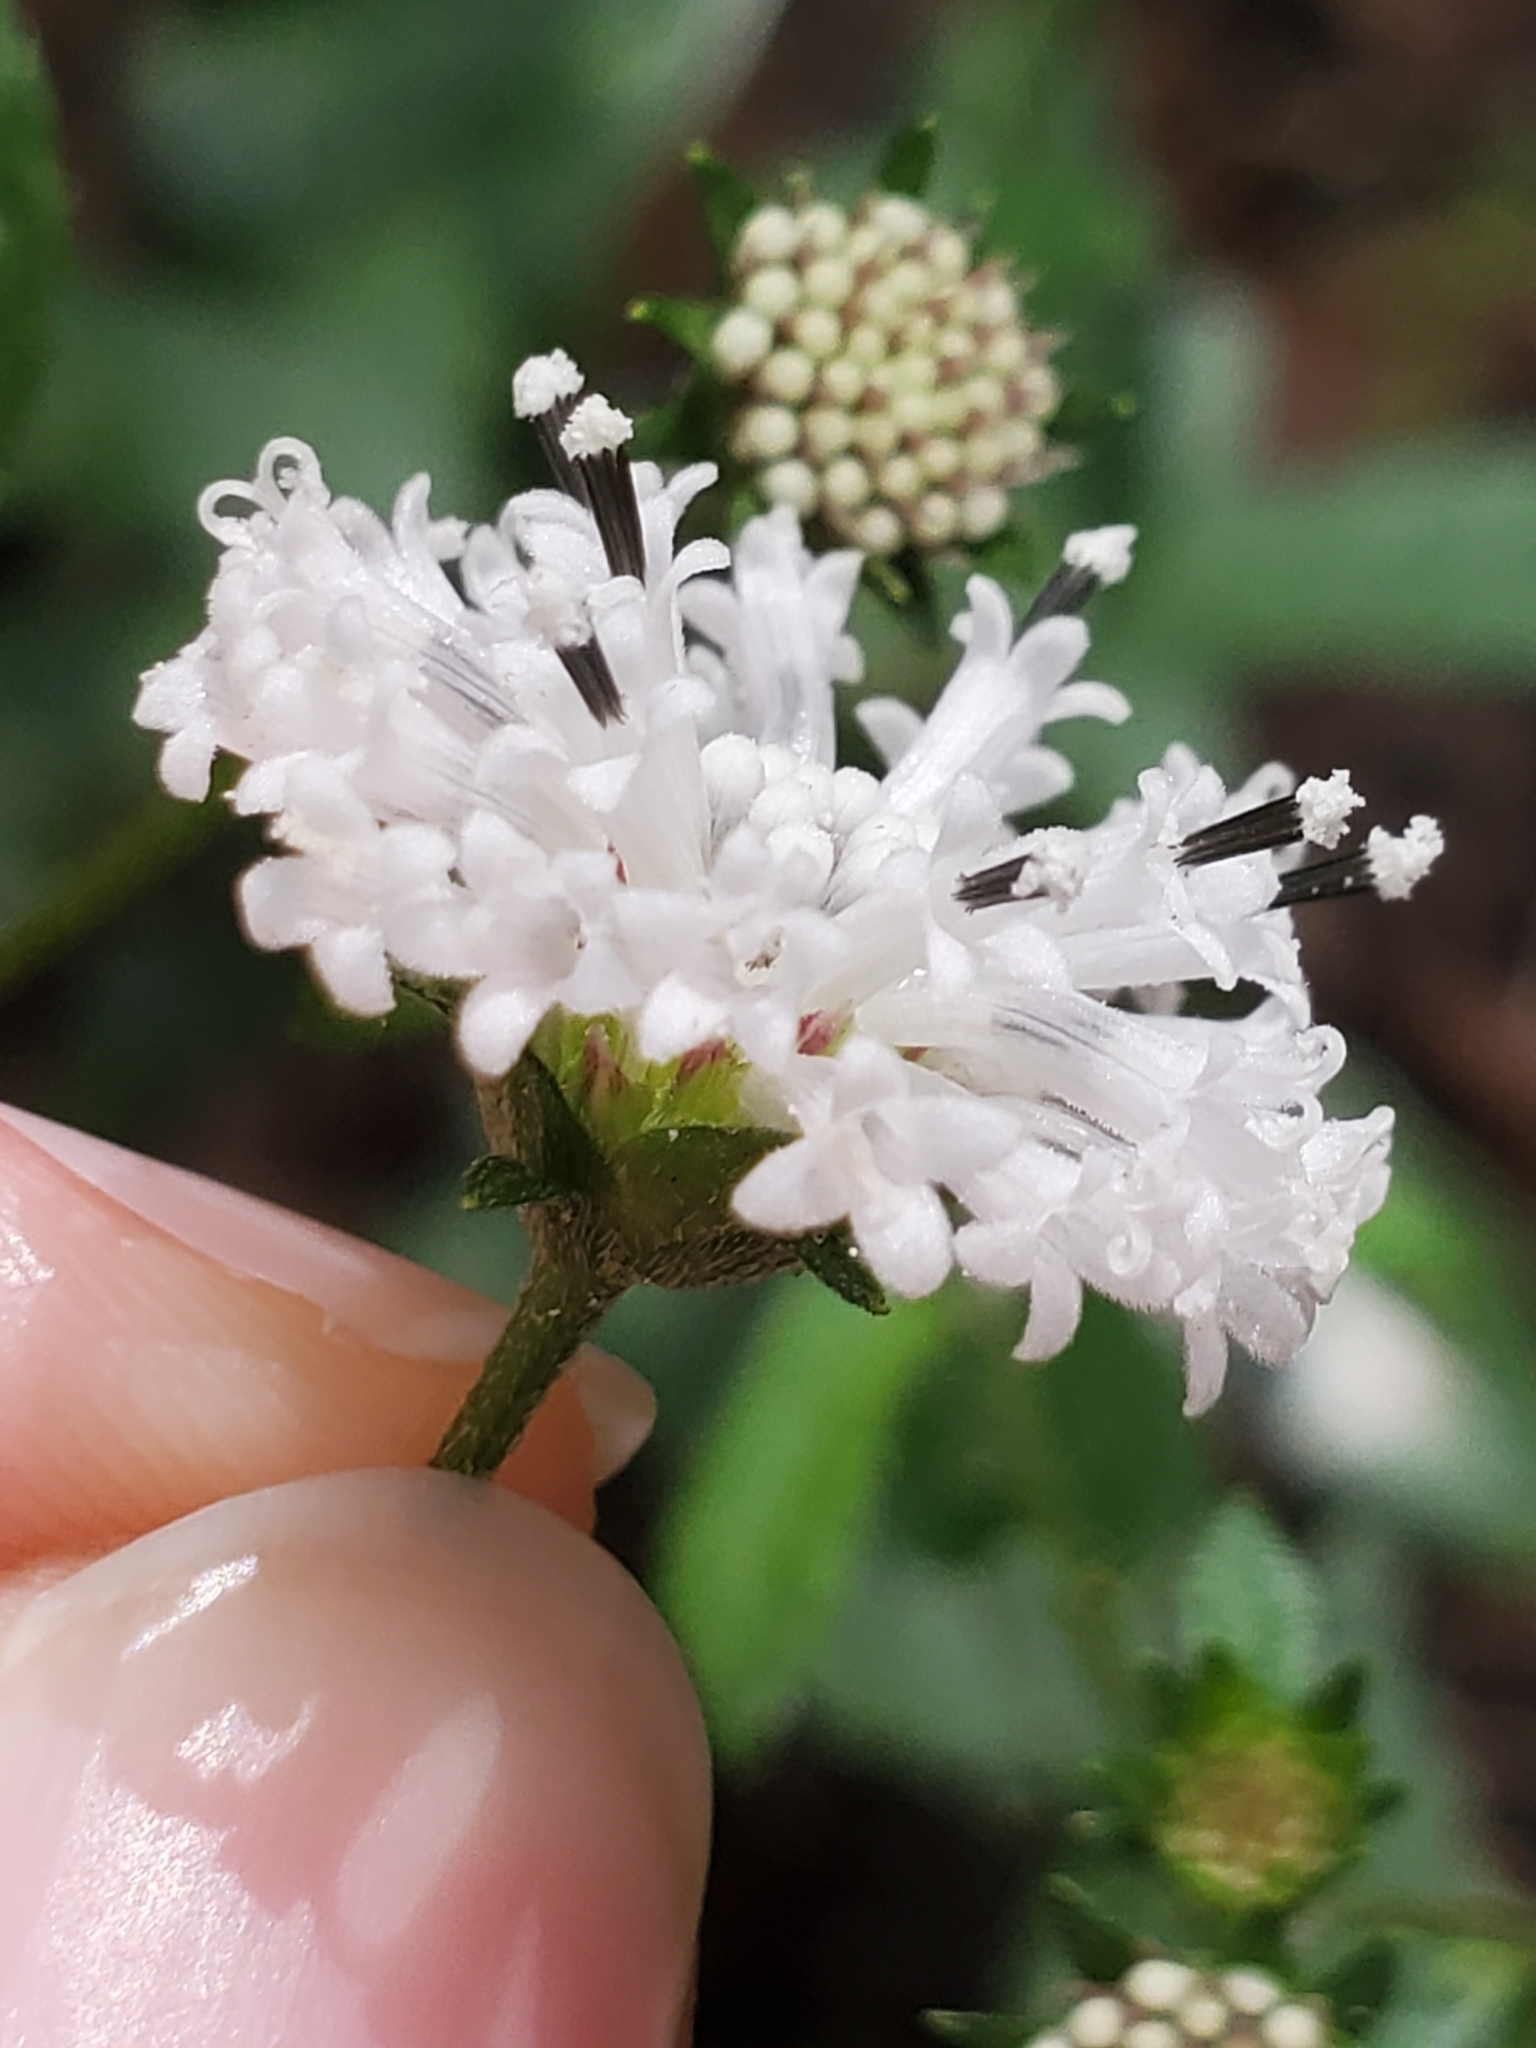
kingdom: Plantae
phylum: Tracheophyta
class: Magnoliopsida
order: Asterales
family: Asteraceae
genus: Melanthera
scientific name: Melanthera nivea
